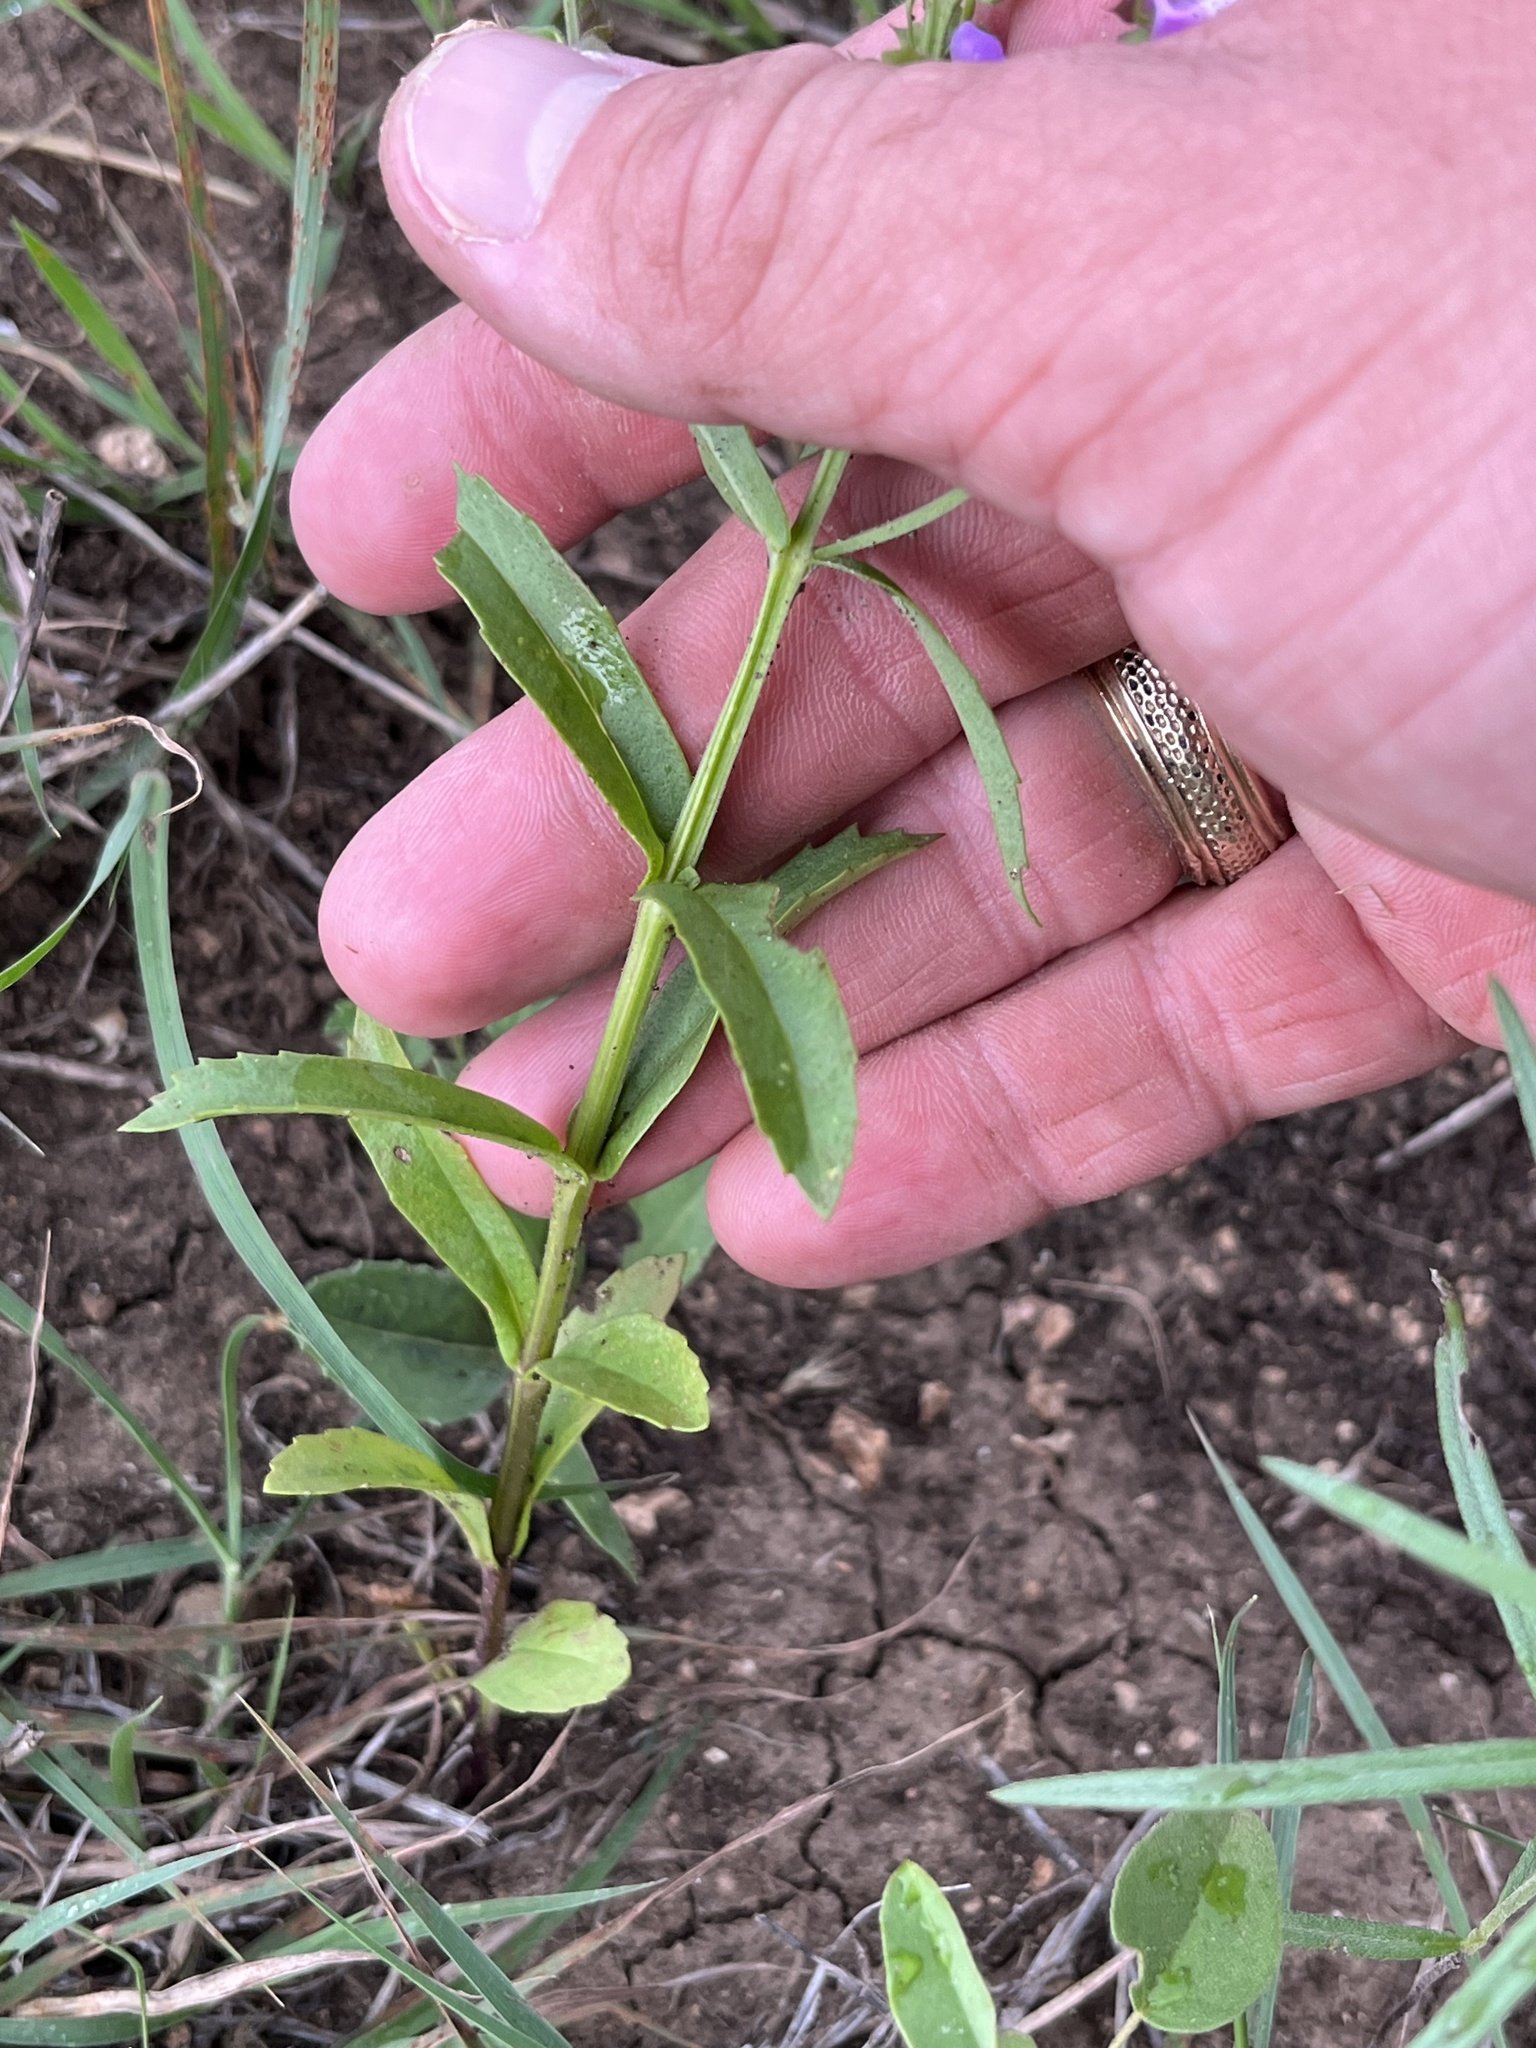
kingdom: Plantae
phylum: Tracheophyta
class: Magnoliopsida
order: Lamiales
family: Lamiaceae
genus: Warnockia
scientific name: Warnockia scutellarioides
